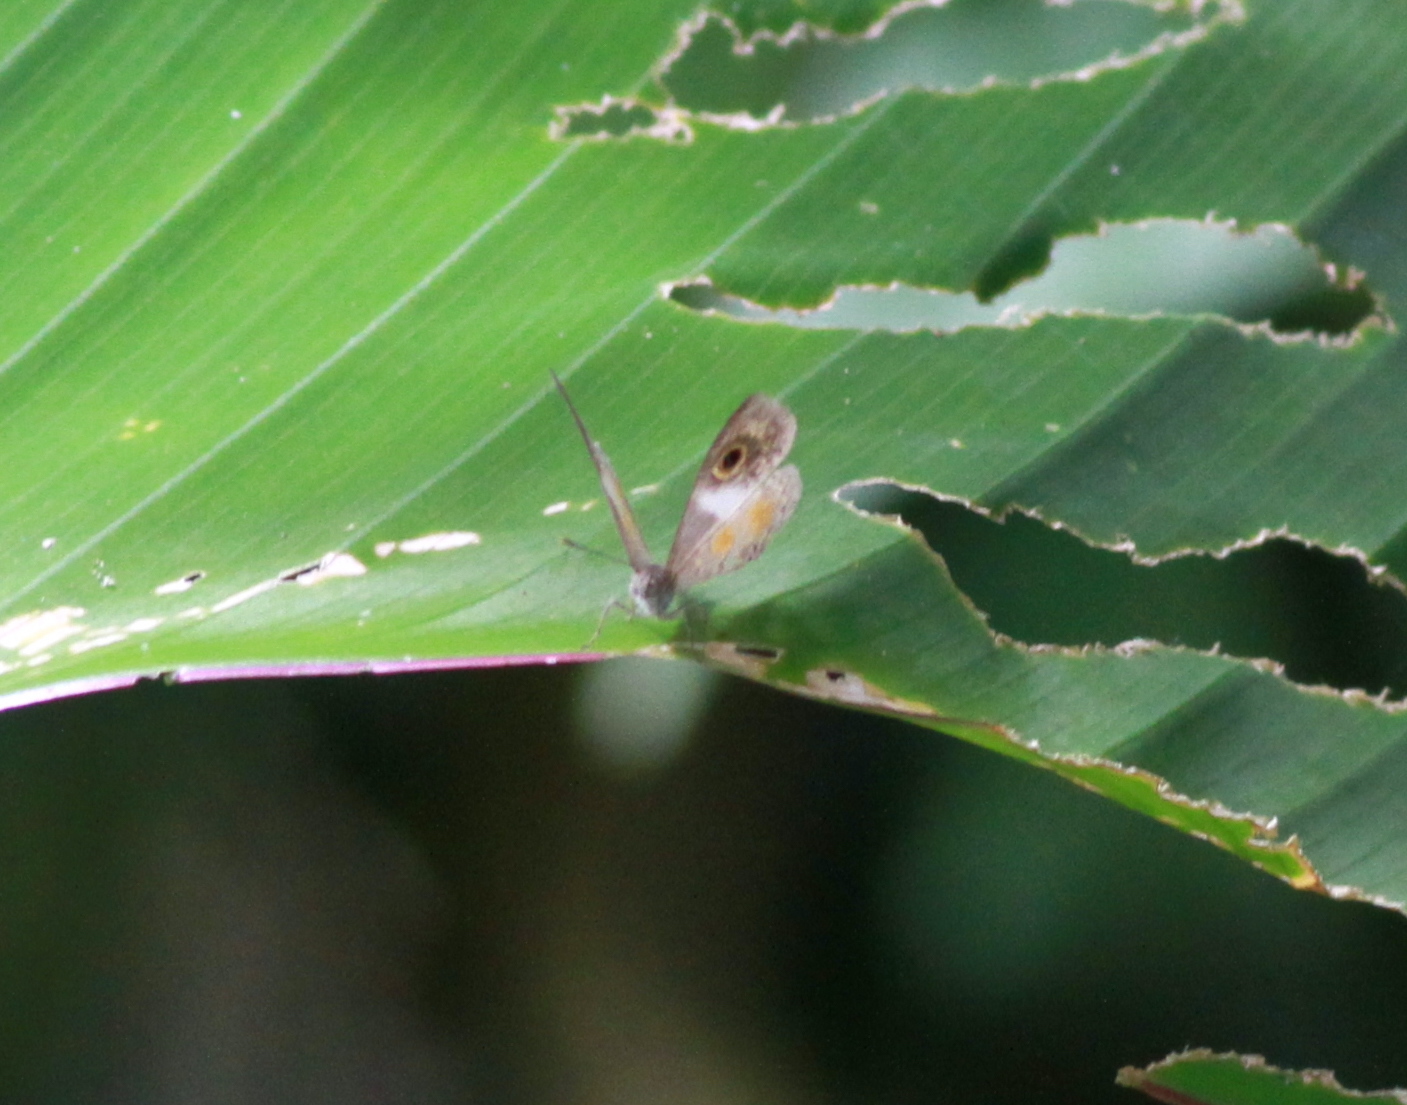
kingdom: Animalia
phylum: Arthropoda
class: Insecta
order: Lepidoptera
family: Riodinidae
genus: Perophthalma
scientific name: Perophthalma lasus
